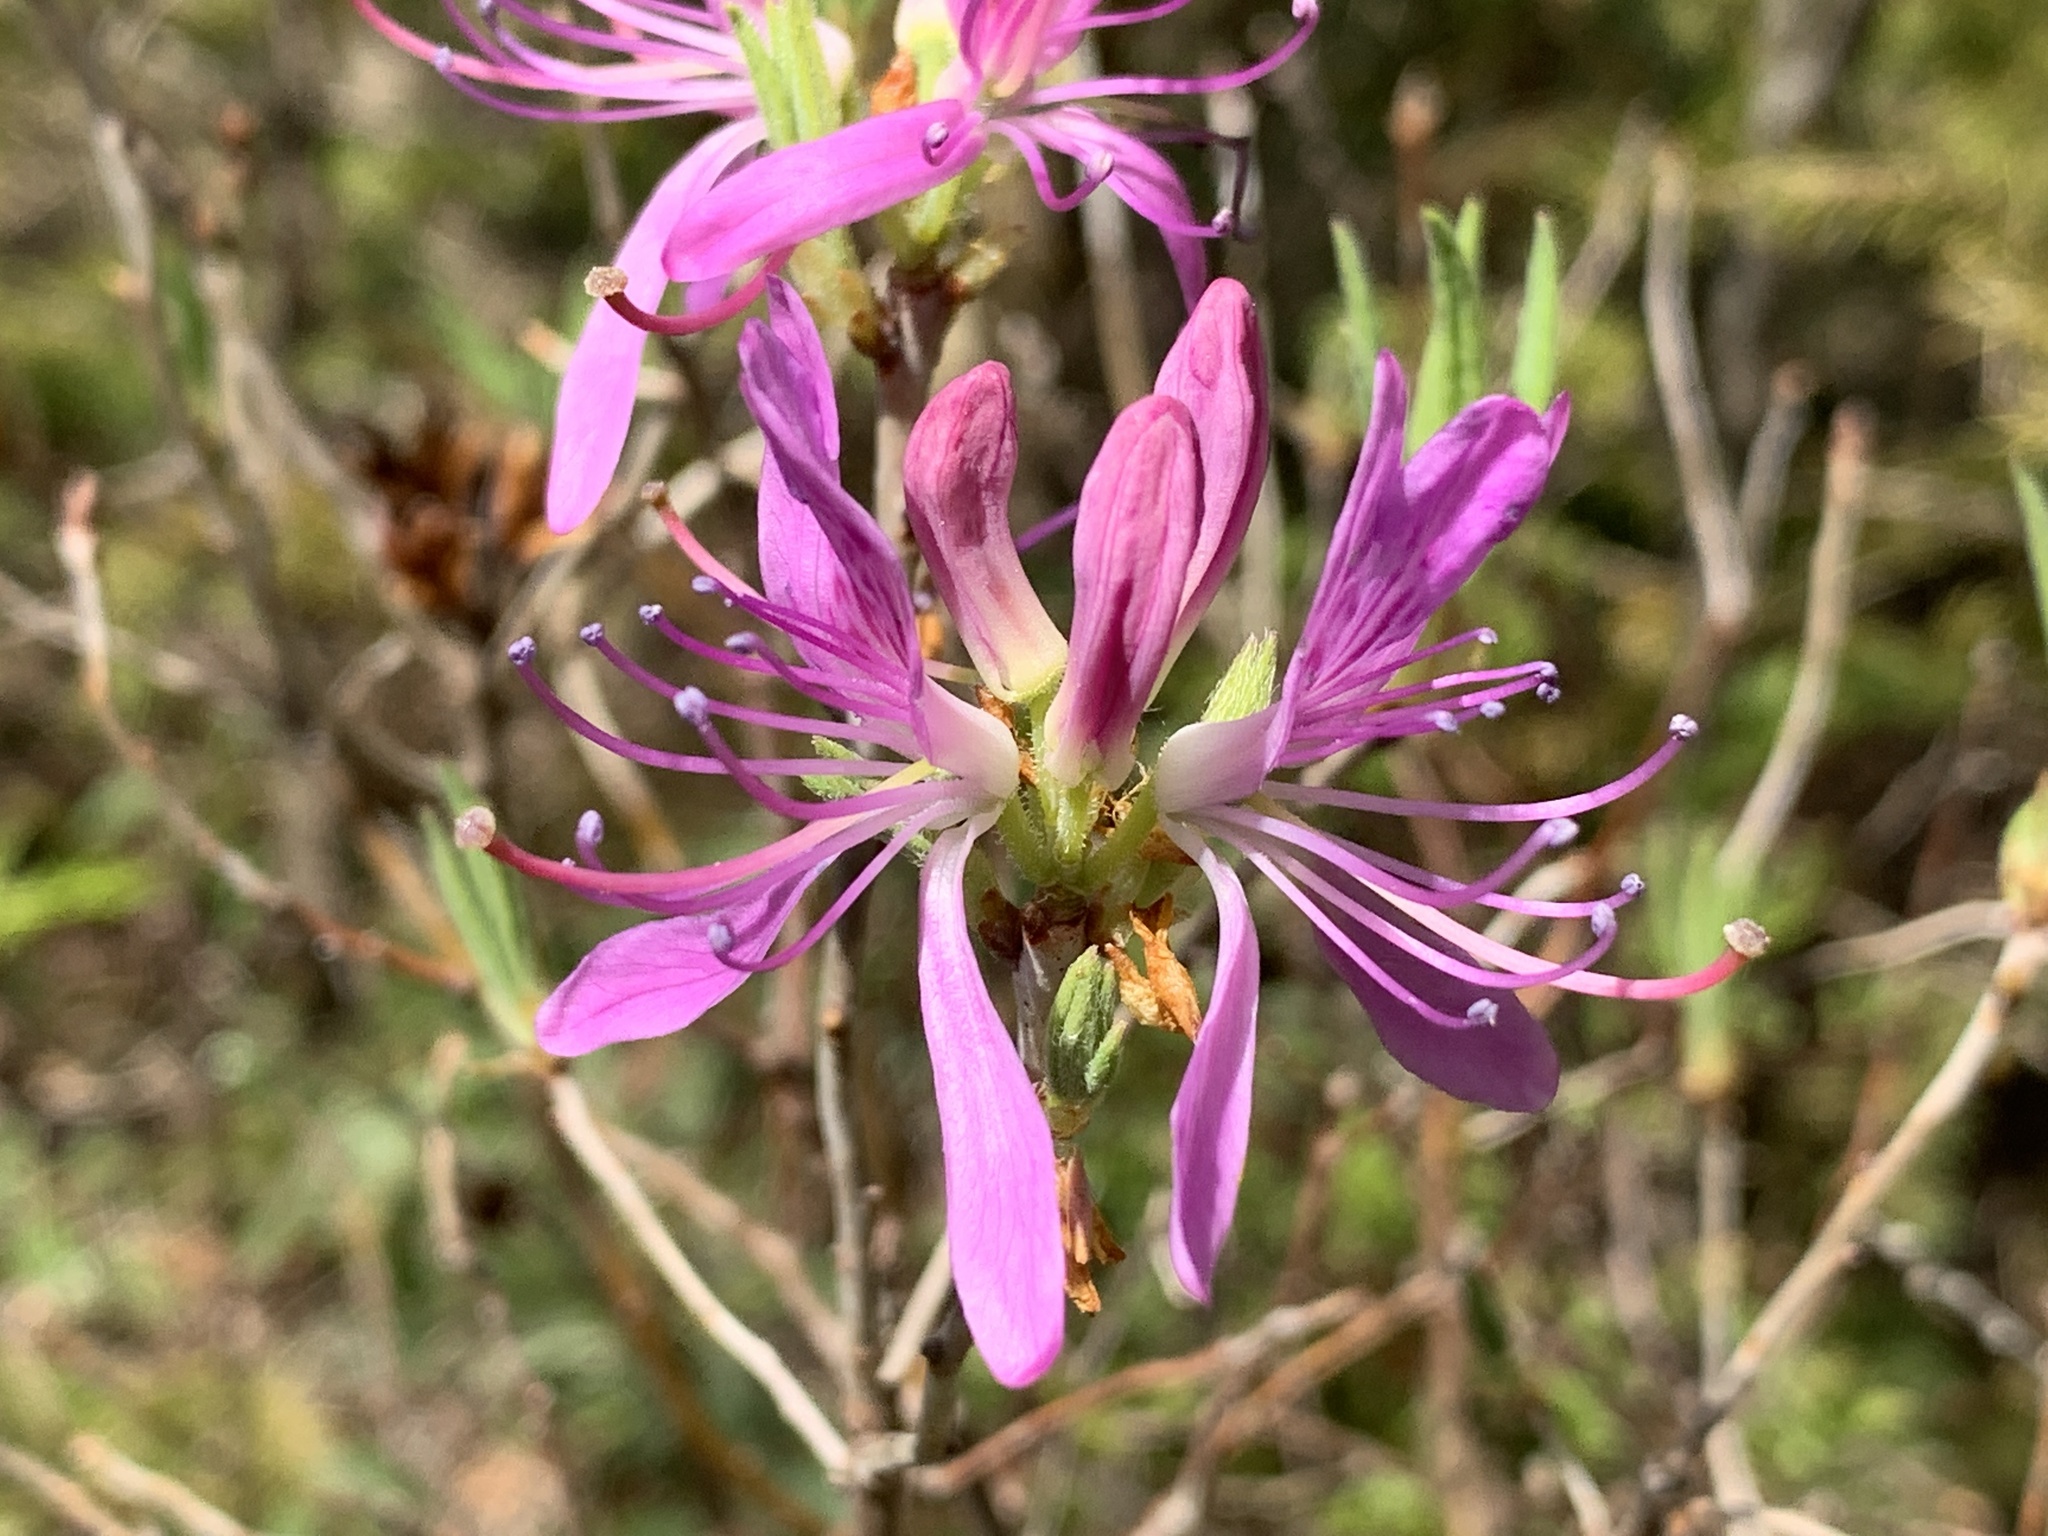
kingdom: Plantae
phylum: Tracheophyta
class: Magnoliopsida
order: Ericales
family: Ericaceae
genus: Rhododendron
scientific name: Rhododendron canadense
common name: Rhodora
